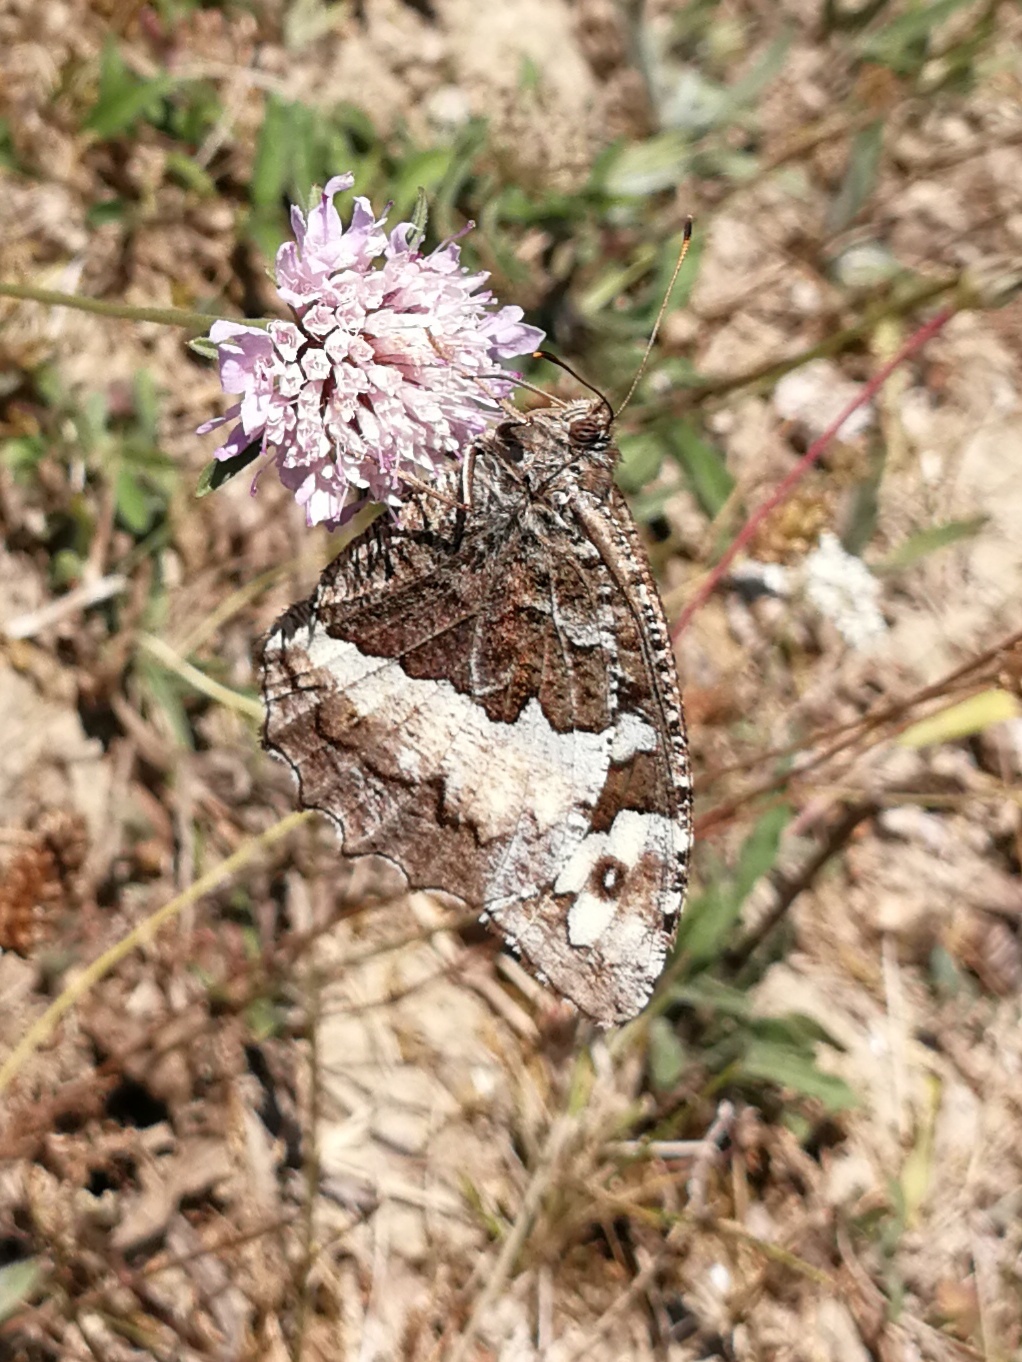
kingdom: Animalia
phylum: Arthropoda
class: Insecta
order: Lepidoptera
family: Lycaenidae
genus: Loweia
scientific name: Loweia tityrus
